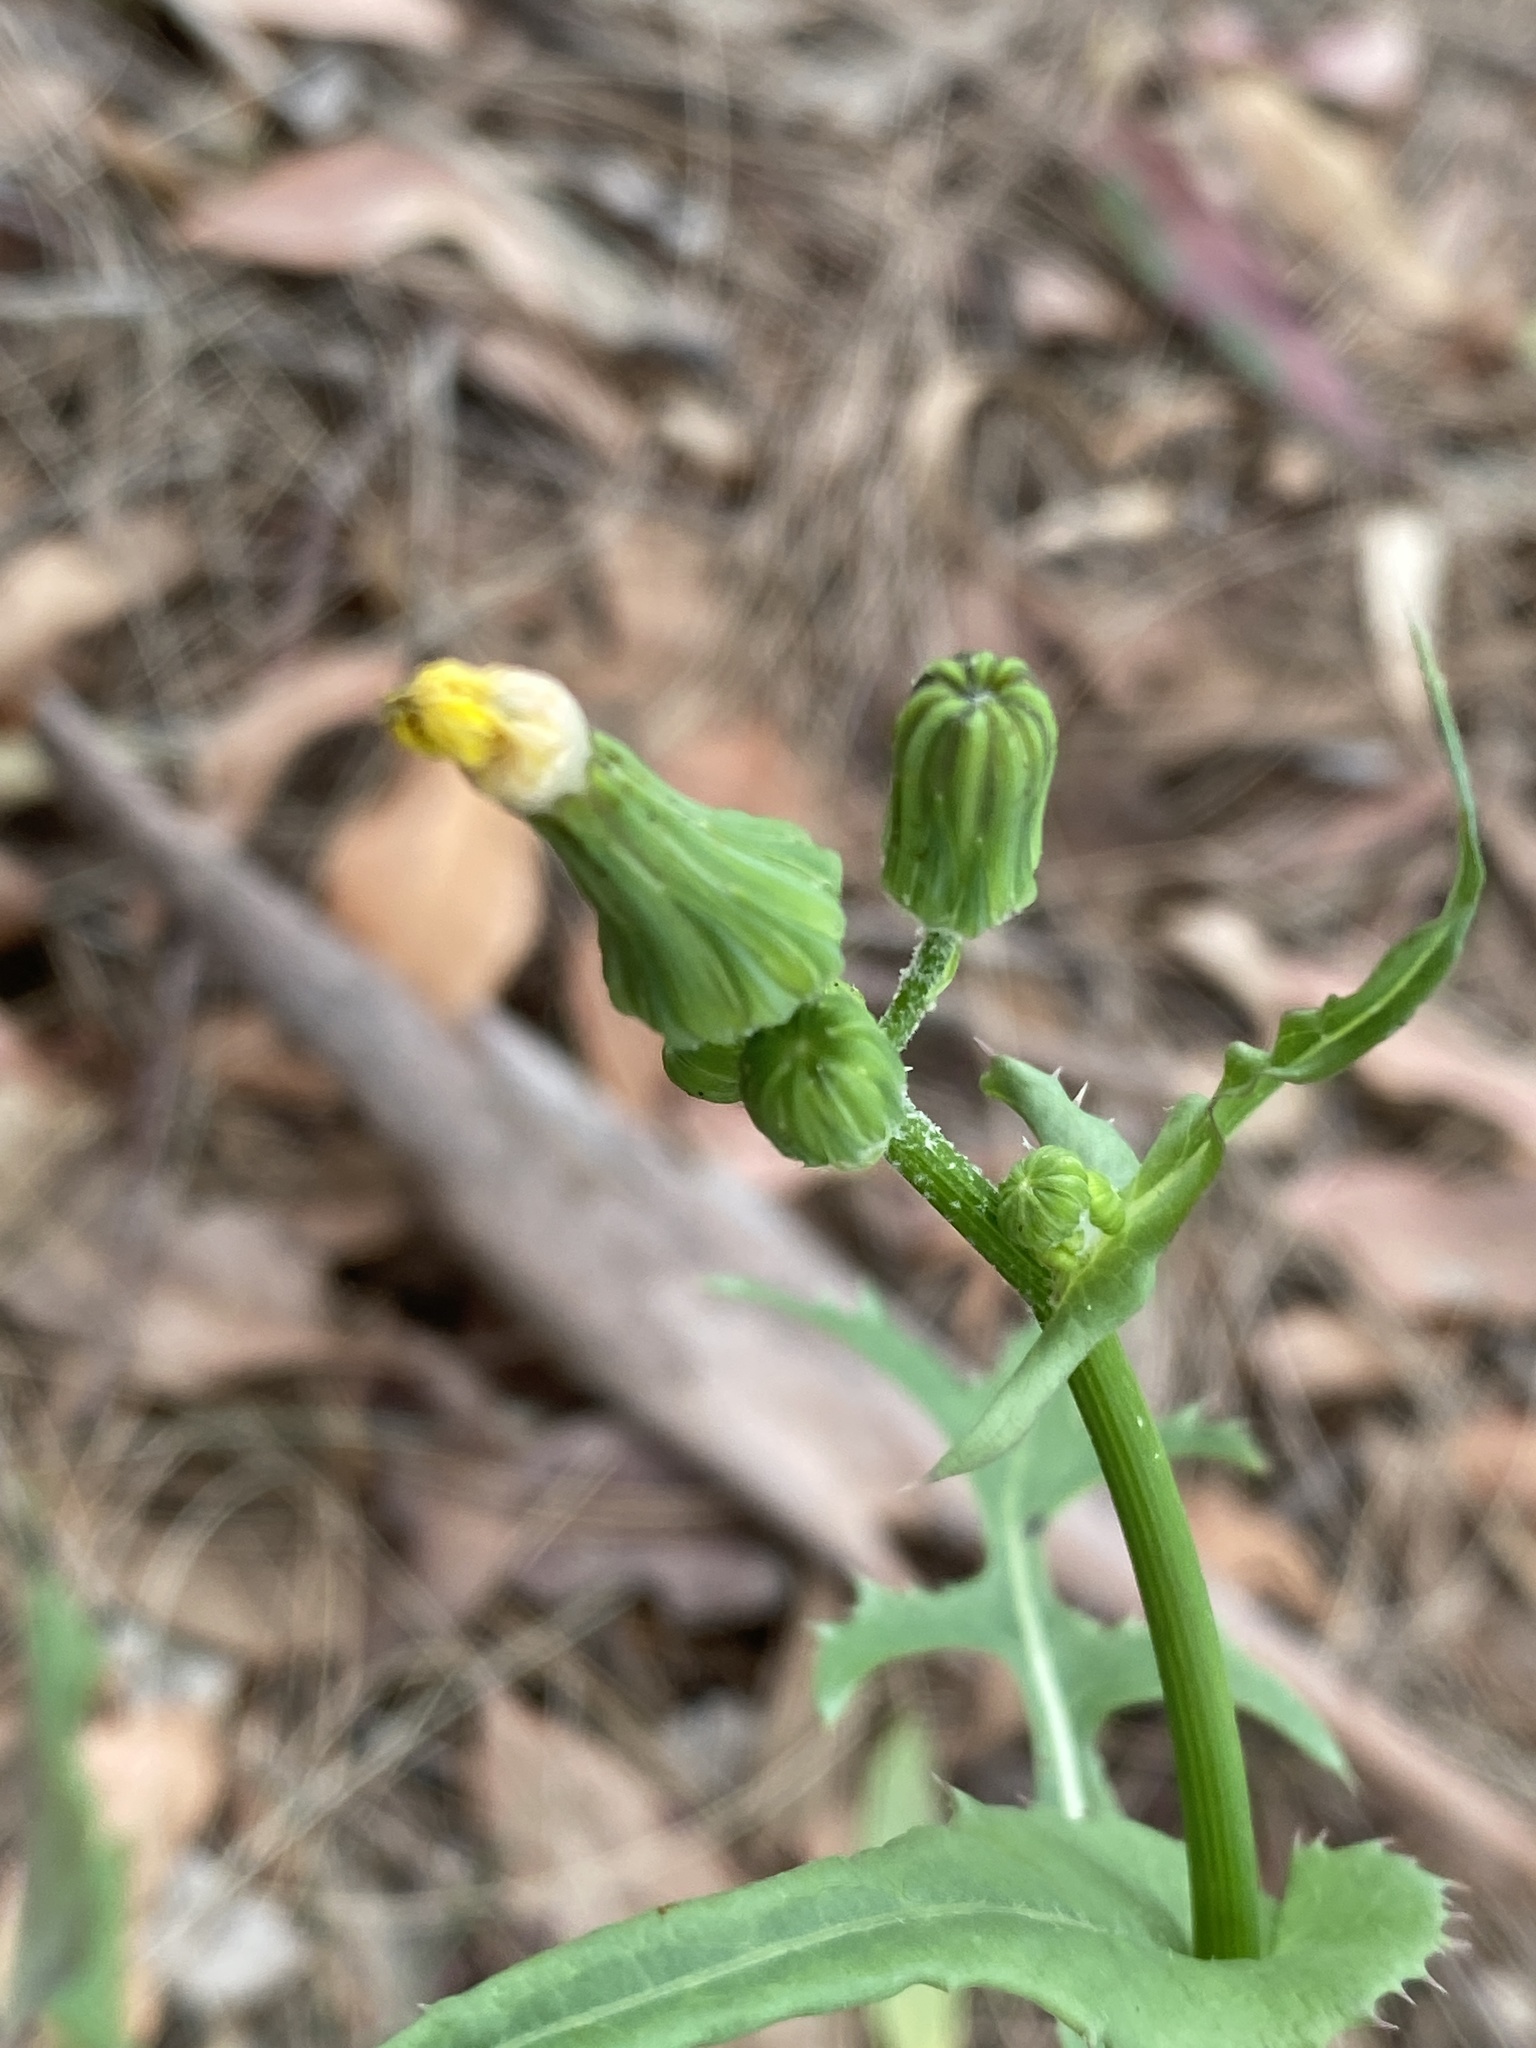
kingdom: Plantae
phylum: Tracheophyta
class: Magnoliopsida
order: Asterales
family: Asteraceae
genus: Sonchus
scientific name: Sonchus oleraceus
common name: Common sowthistle
